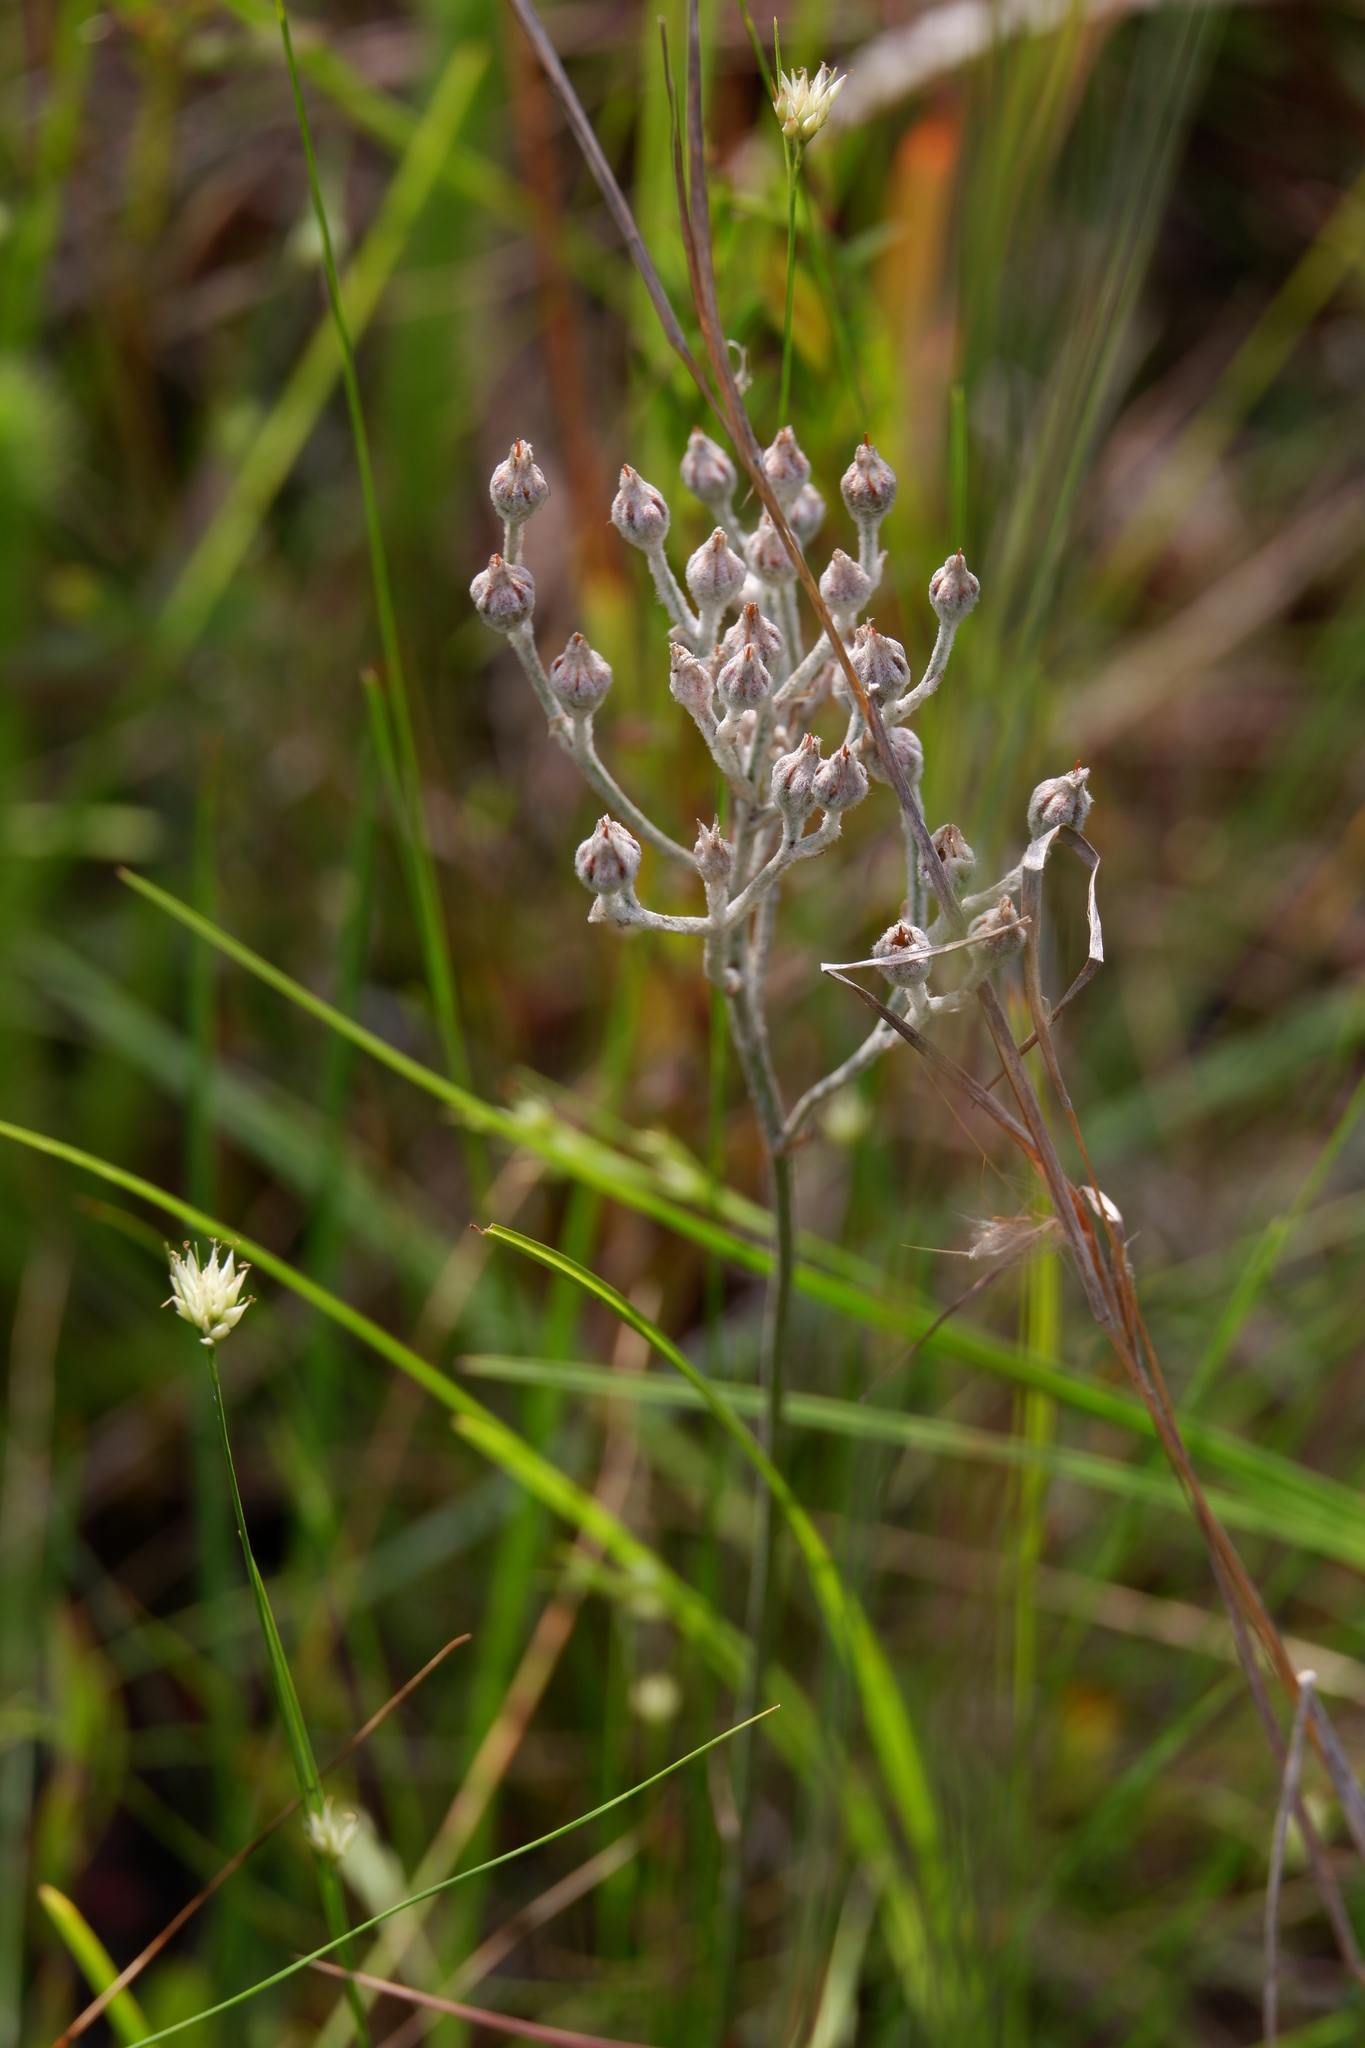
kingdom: Plantae
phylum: Tracheophyta
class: Liliopsida
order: Dioscoreales
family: Nartheciaceae
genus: Lophiola
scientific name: Lophiola aurea
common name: Golden-crest
